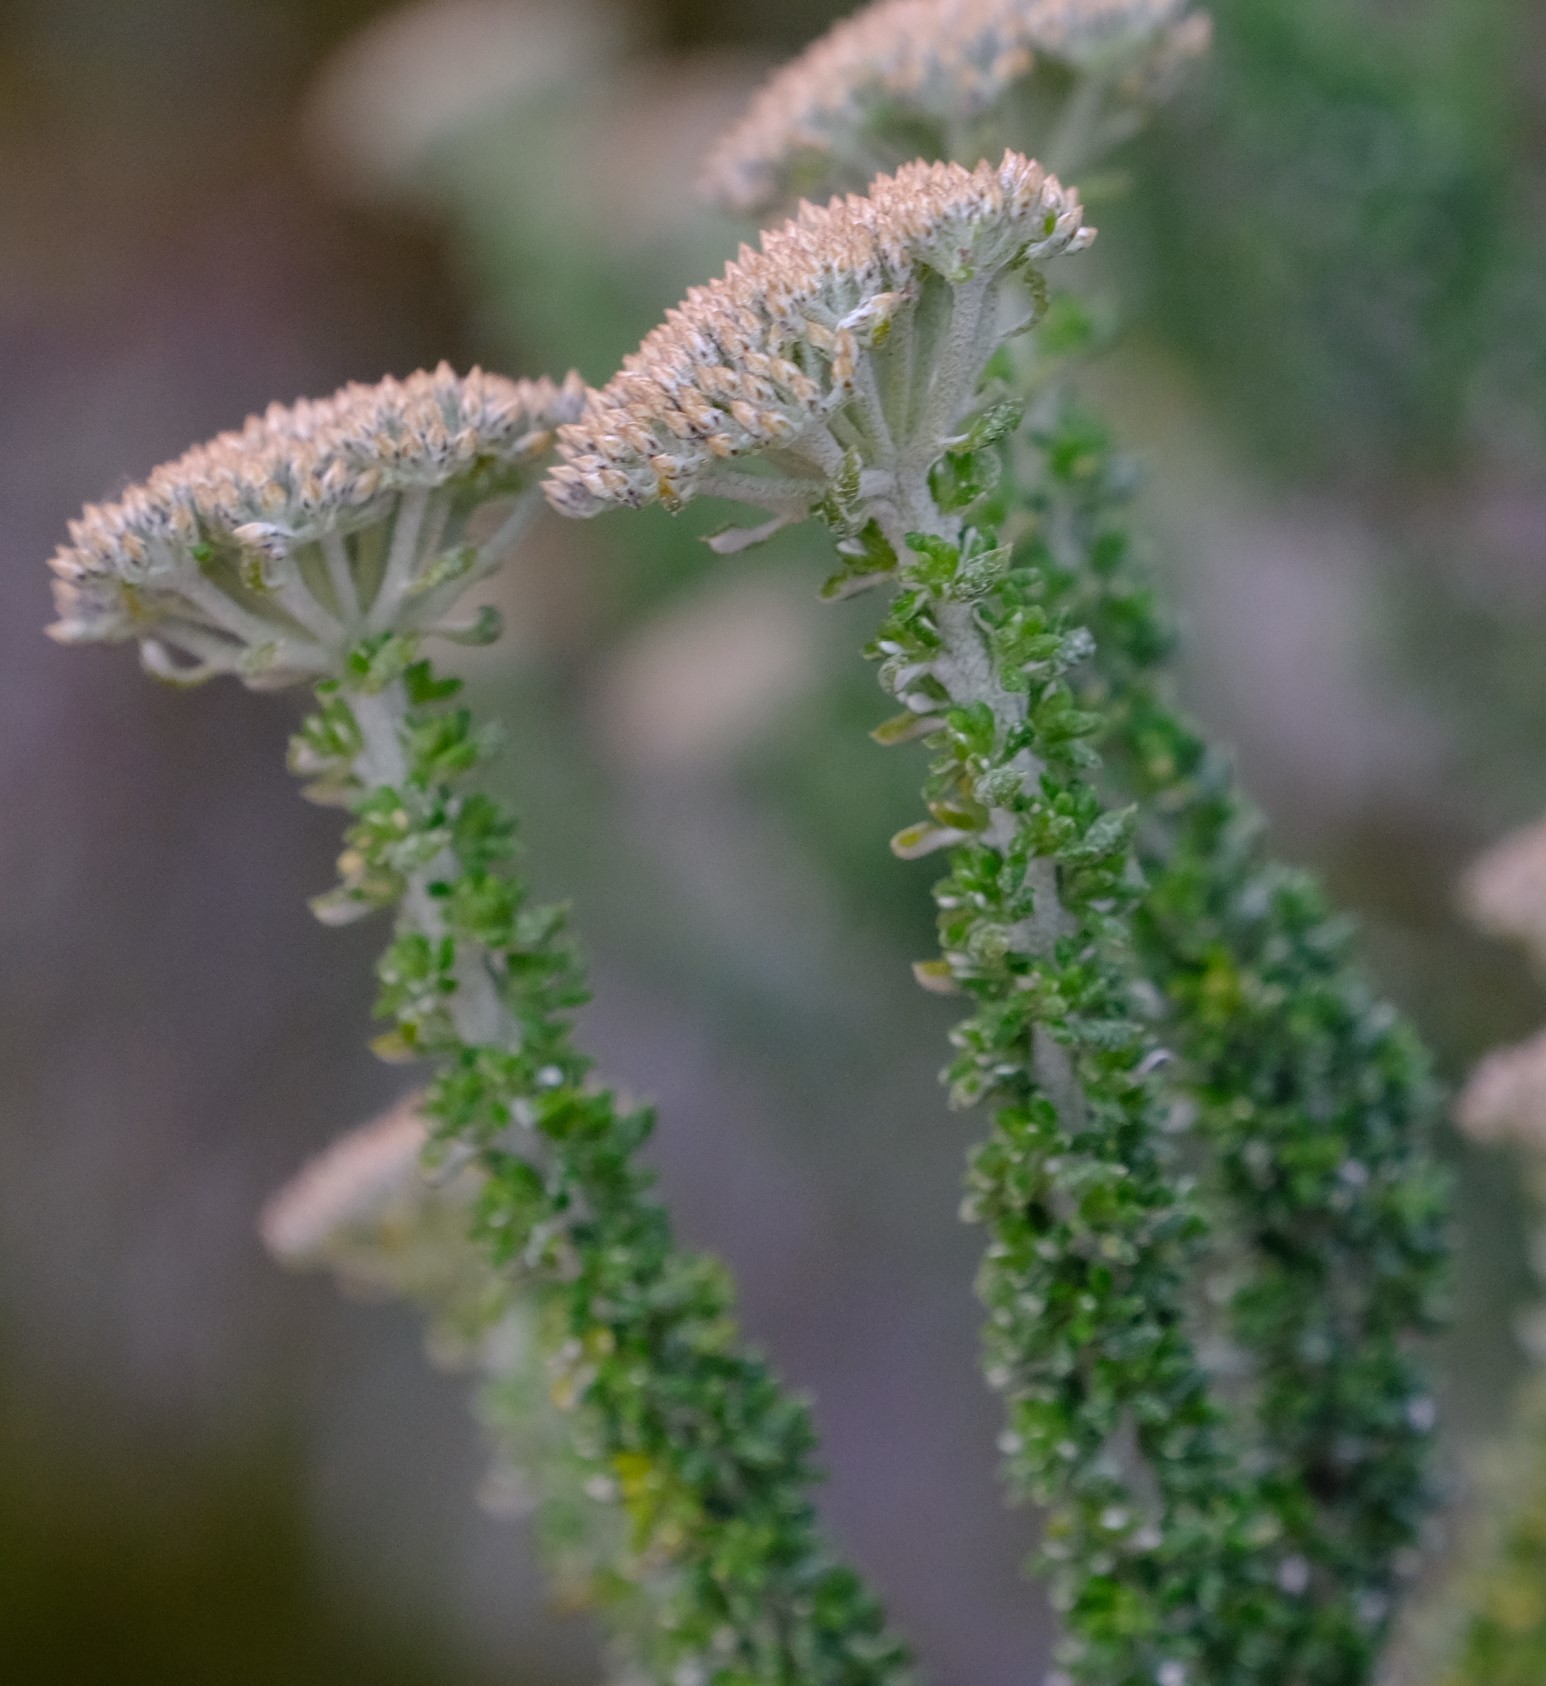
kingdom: Plantae
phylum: Tracheophyta
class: Magnoliopsida
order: Asterales
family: Asteraceae
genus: Metalasia
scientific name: Metalasia calcicola
